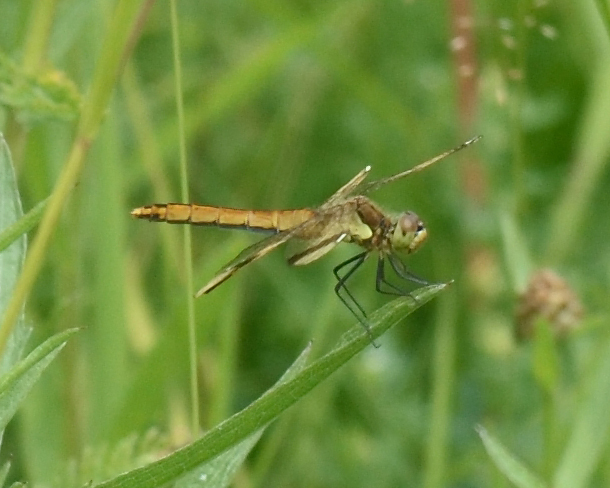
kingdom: Animalia
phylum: Arthropoda
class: Insecta
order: Odonata
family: Libellulidae
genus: Sympetrum
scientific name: Sympetrum pedemontanum
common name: Banded darter
